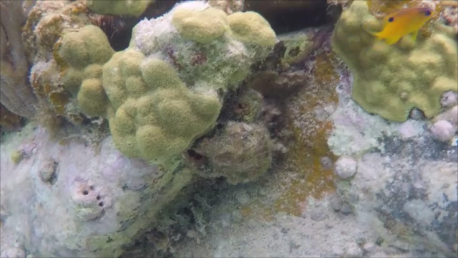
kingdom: Animalia
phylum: Chordata
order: Perciformes
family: Pomacentridae
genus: Stegastes
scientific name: Stegastes diencaeus
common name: Longfin damselfish
